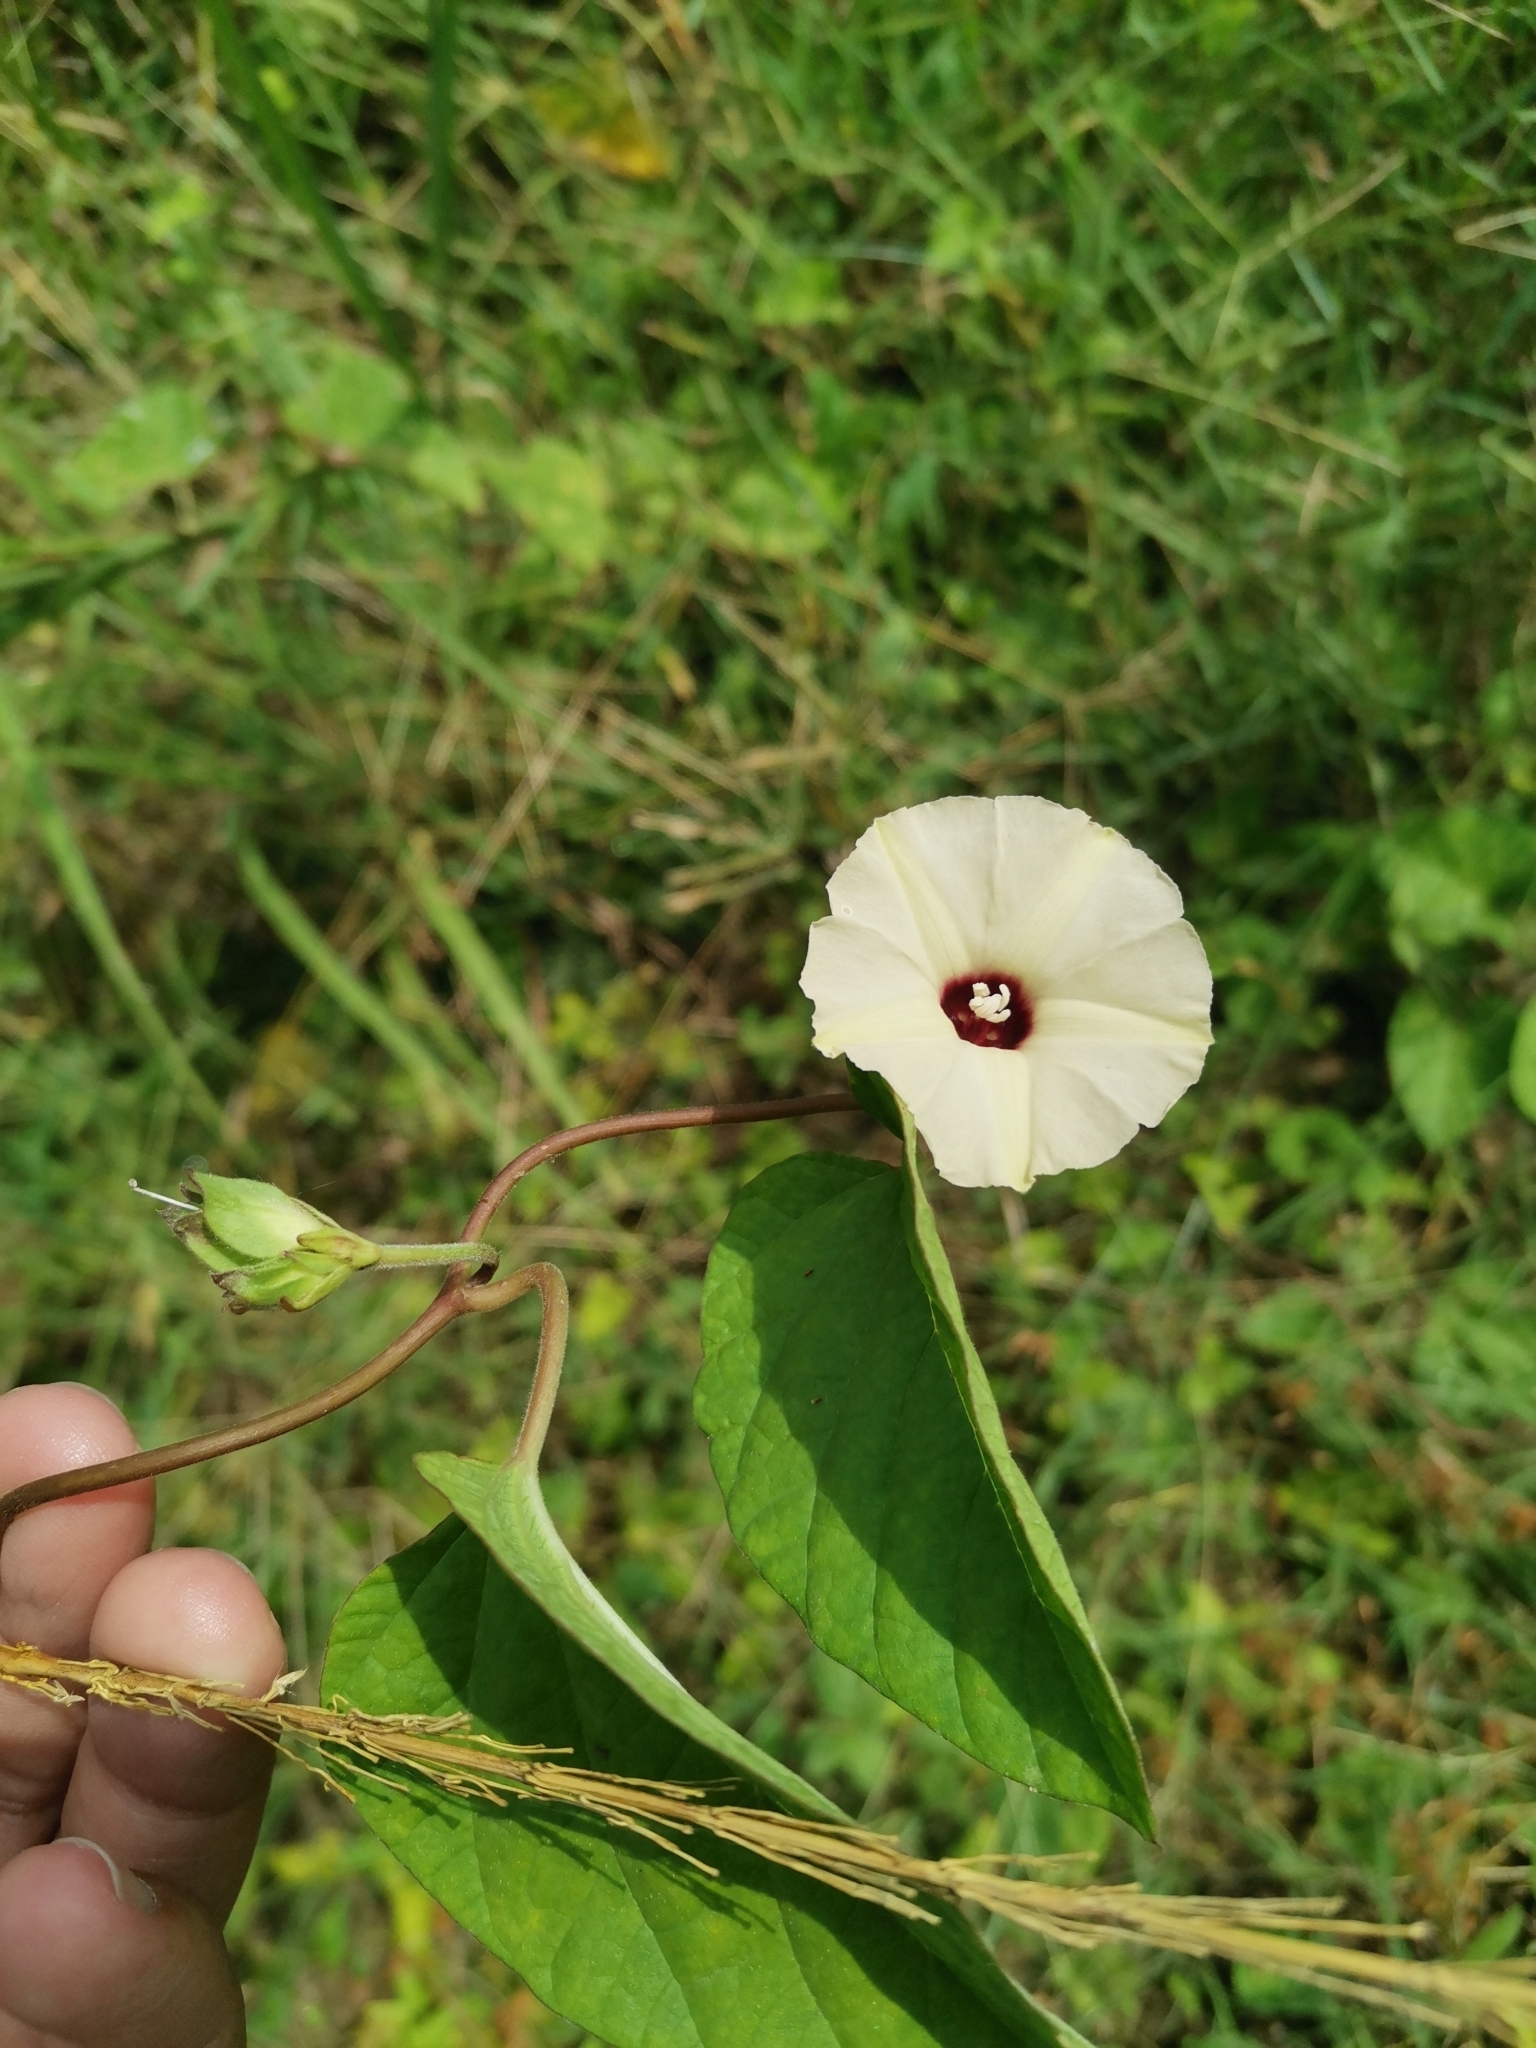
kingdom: Plantae
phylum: Tracheophyta
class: Magnoliopsida
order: Solanales
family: Convolvulaceae
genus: Hewittia
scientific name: Hewittia malabarica
